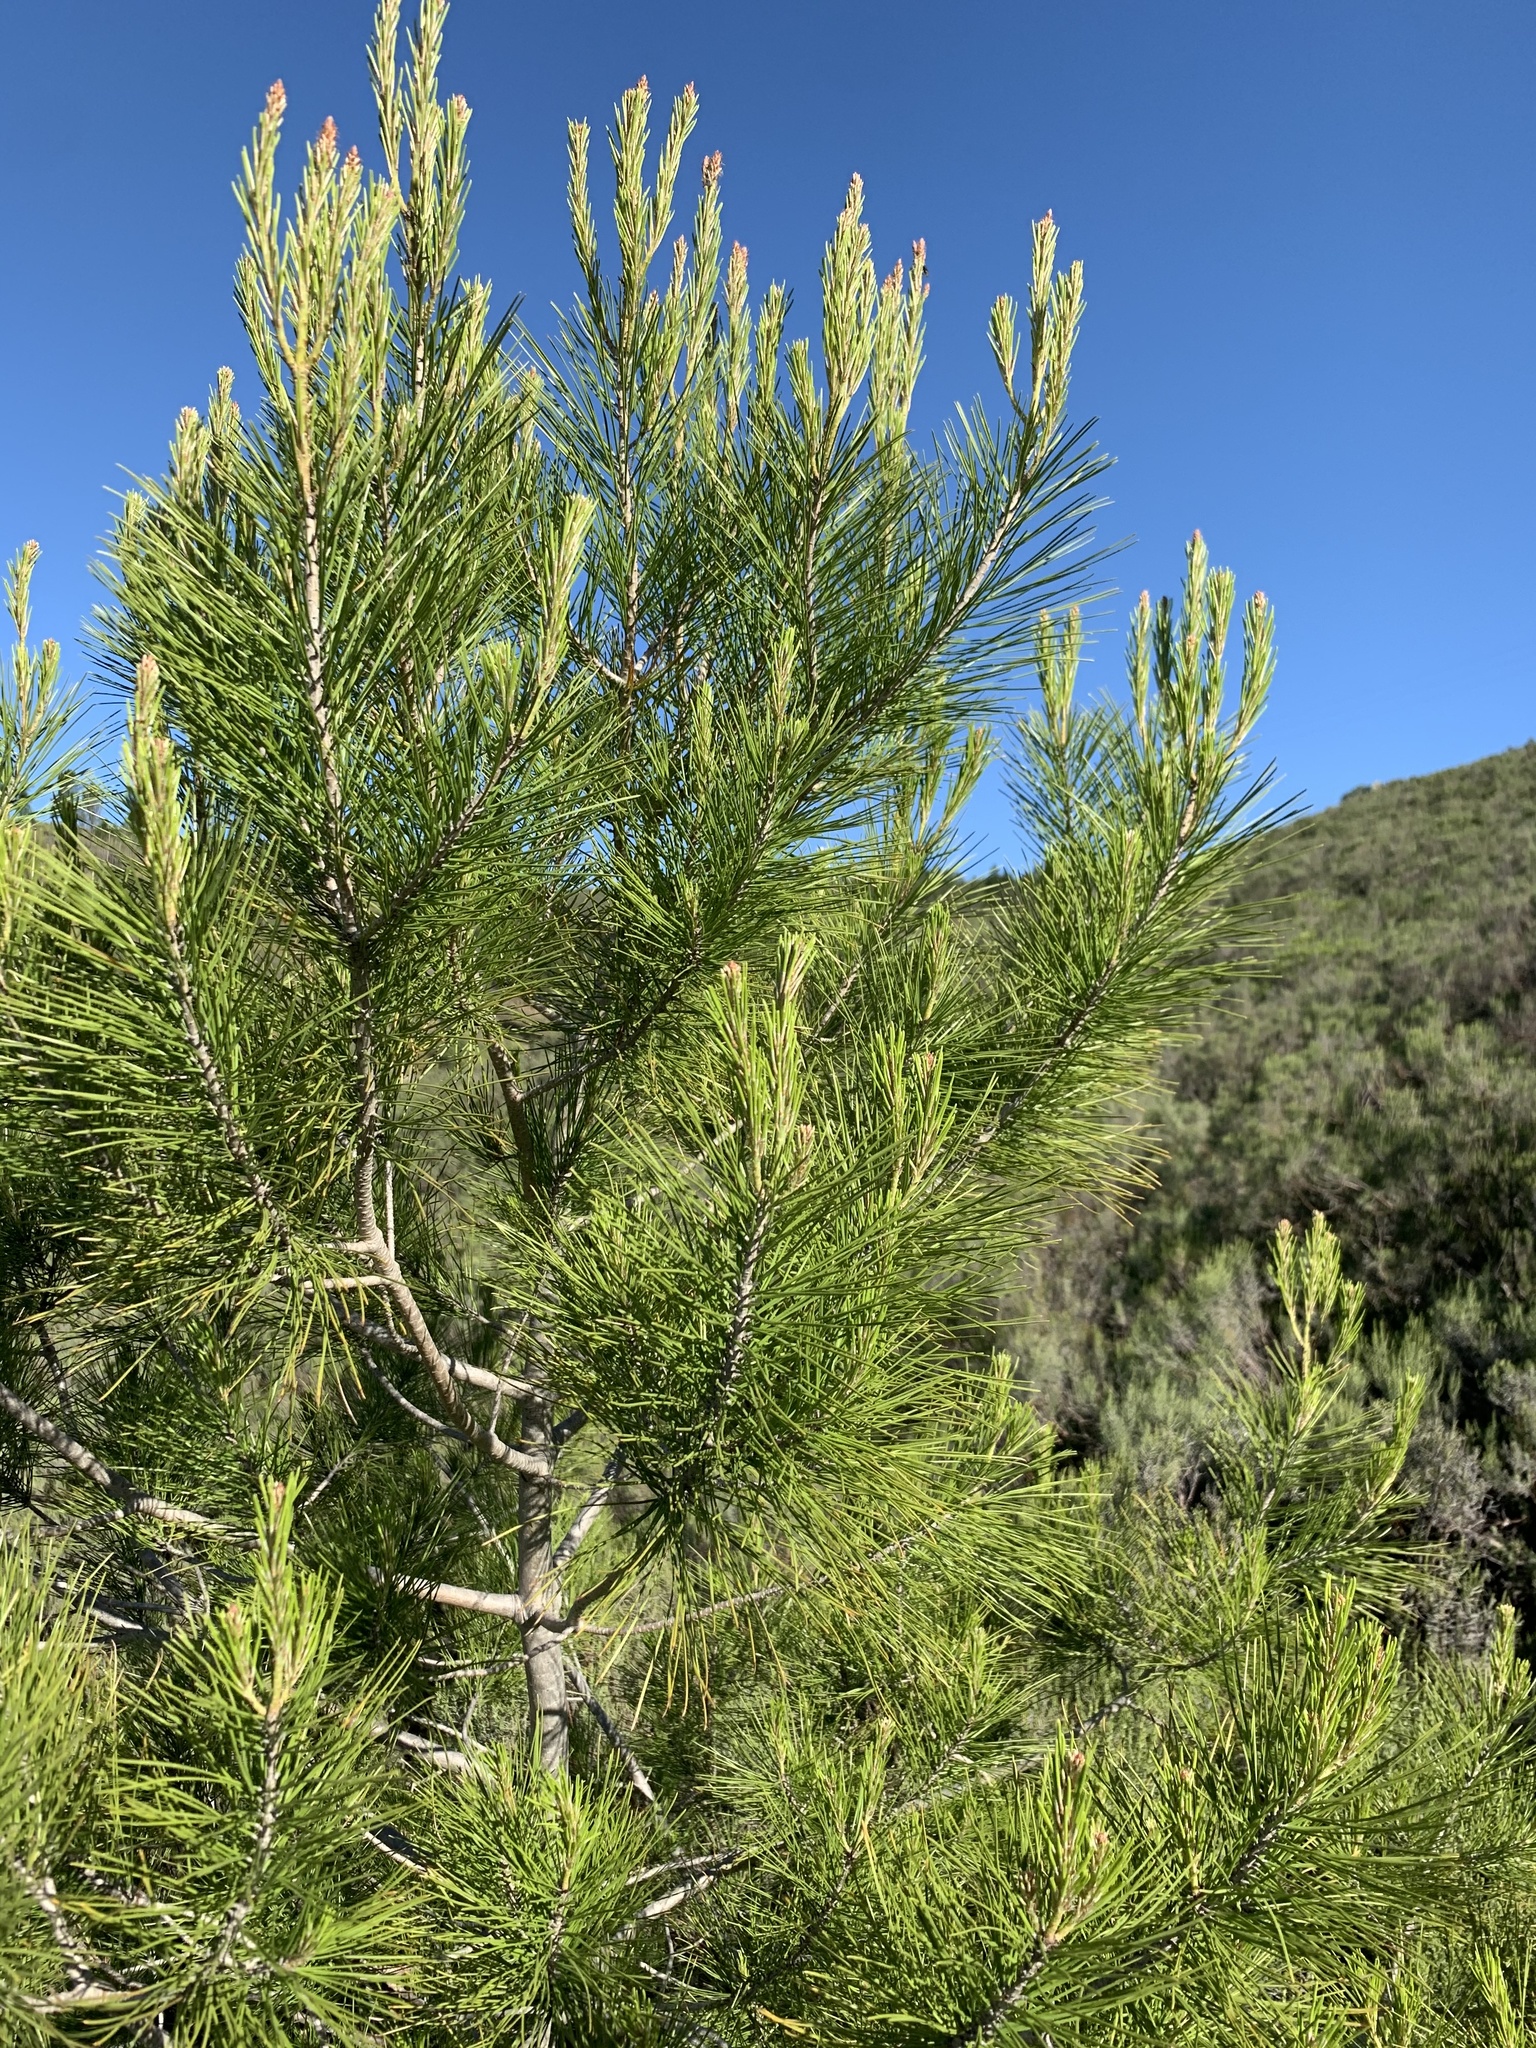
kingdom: Plantae
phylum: Tracheophyta
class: Pinopsida
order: Pinales
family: Pinaceae
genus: Pinus
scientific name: Pinus halepensis
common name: Aleppo pine
